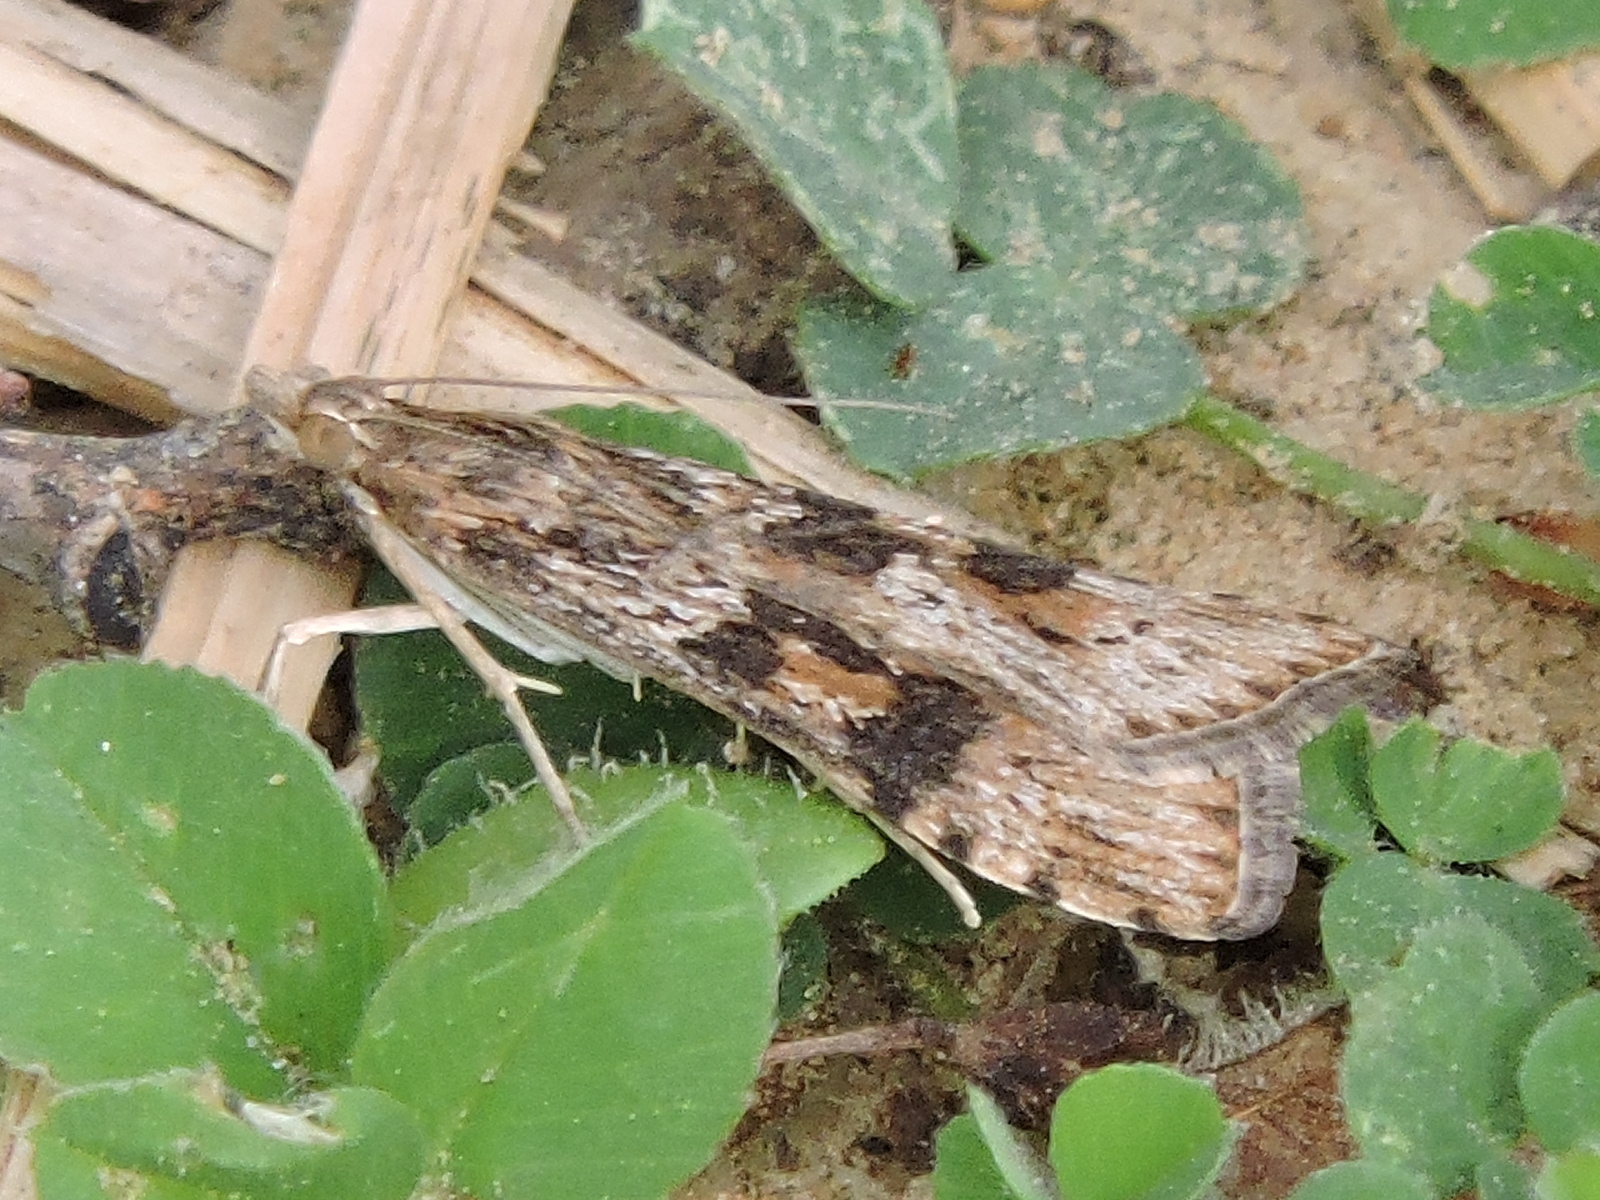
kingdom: Animalia
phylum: Arthropoda
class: Insecta
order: Lepidoptera
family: Crambidae
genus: Nomophila
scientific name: Nomophila nearctica
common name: American rush veneer
